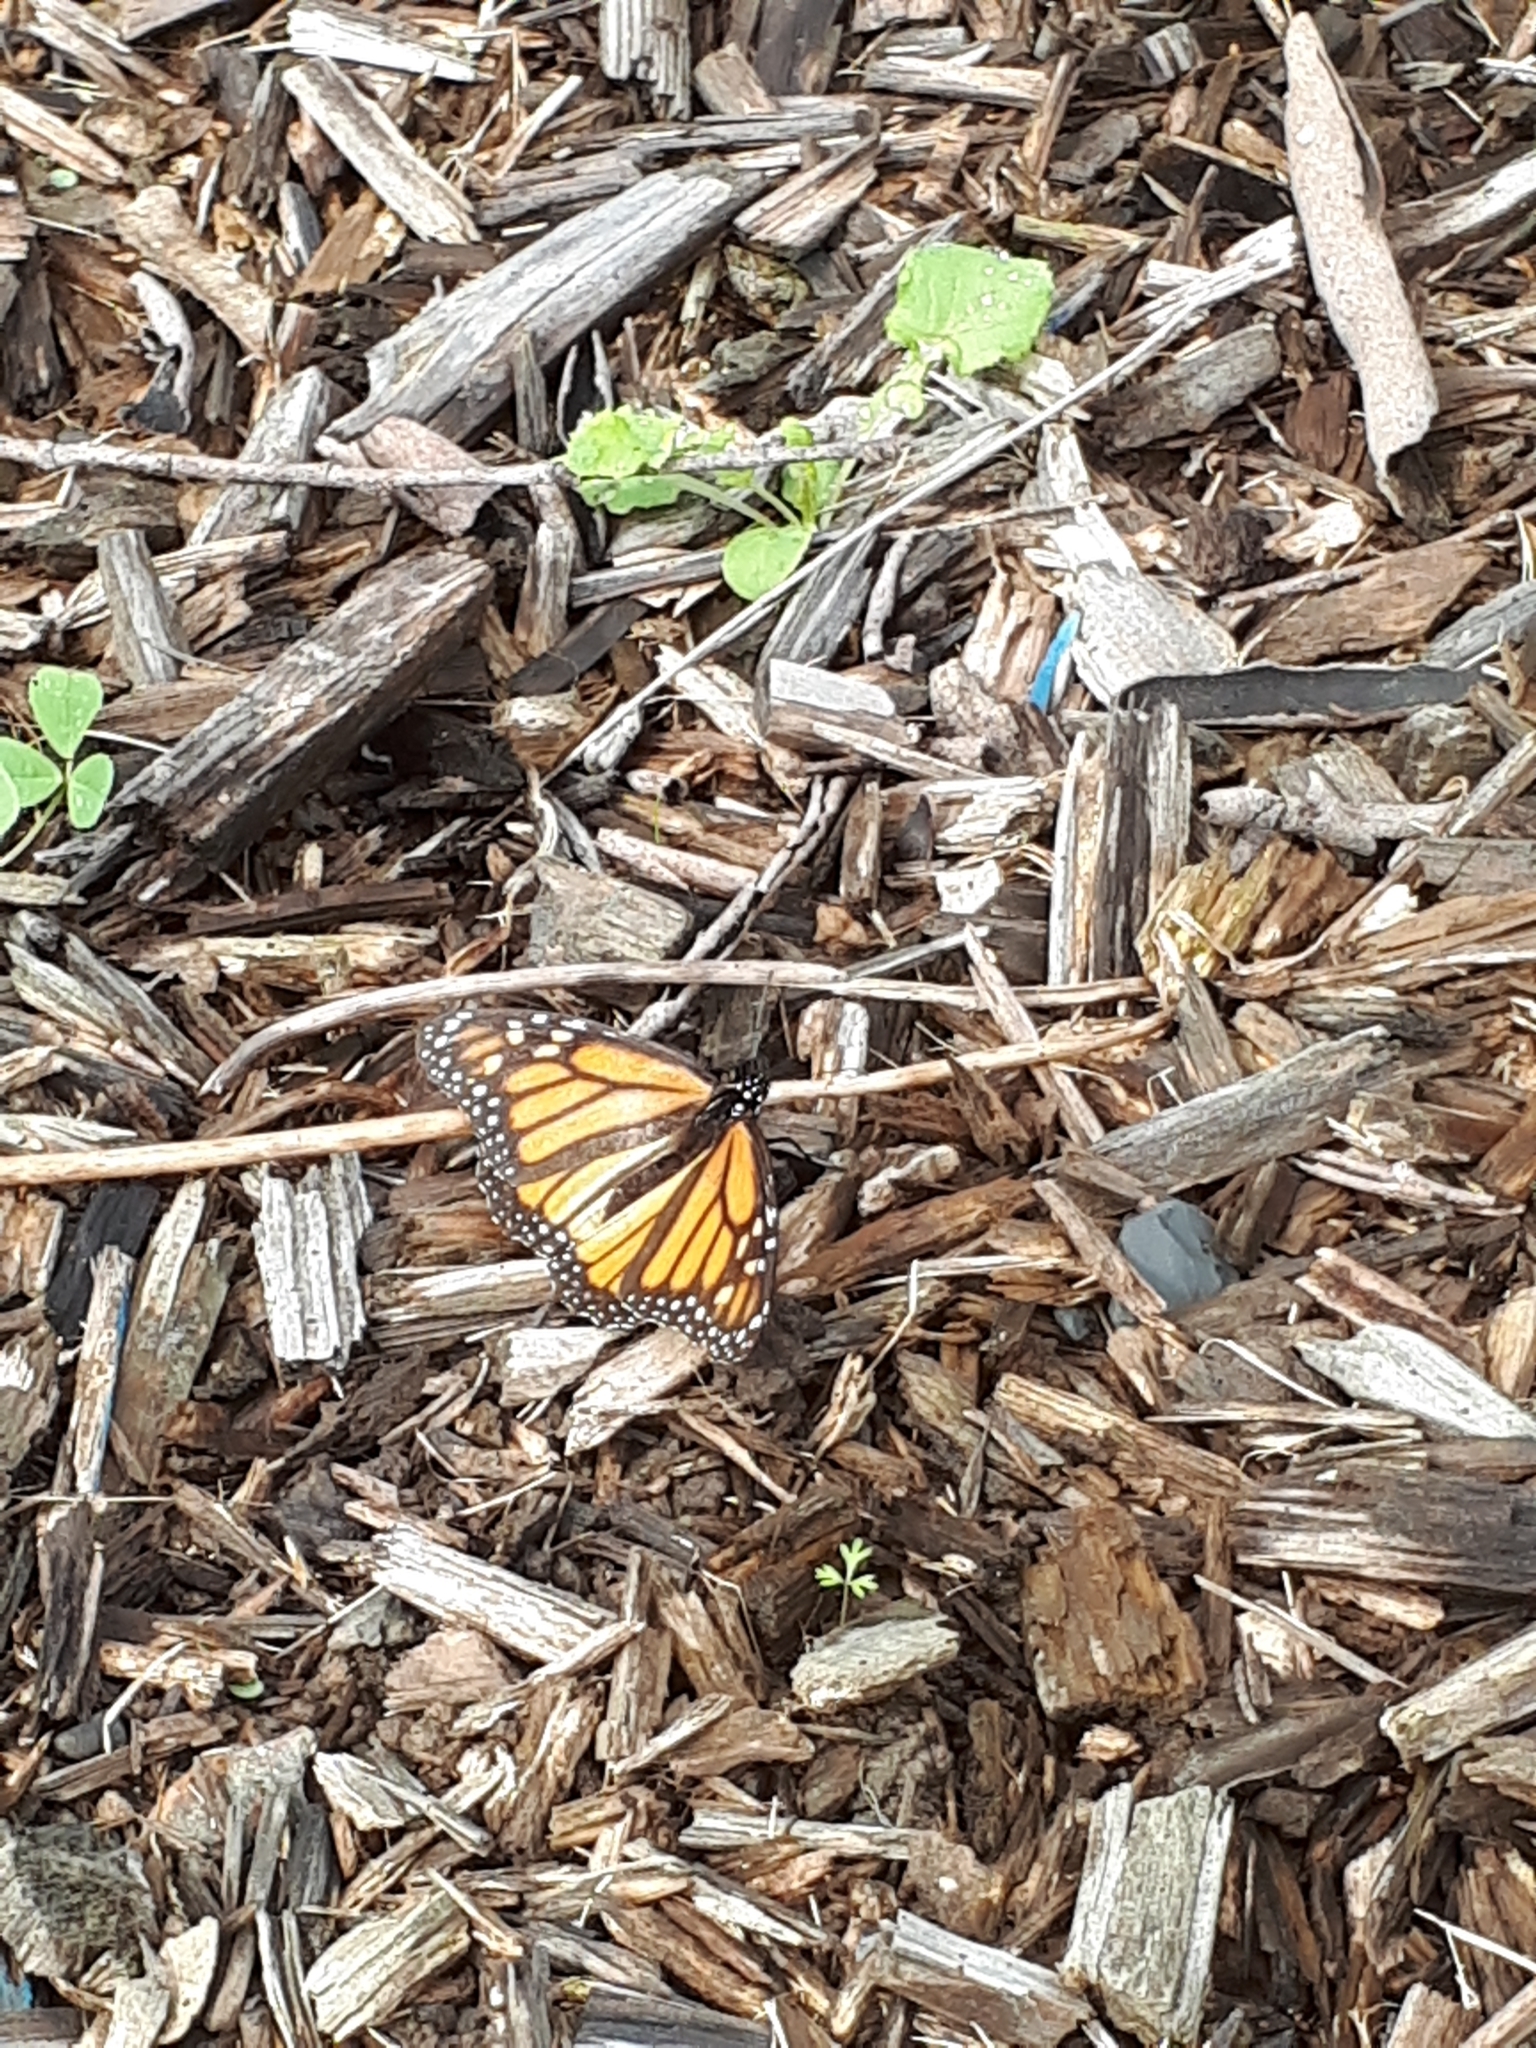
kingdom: Animalia
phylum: Arthropoda
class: Insecta
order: Lepidoptera
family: Nymphalidae
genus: Danaus
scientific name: Danaus plexippus
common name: Monarch
